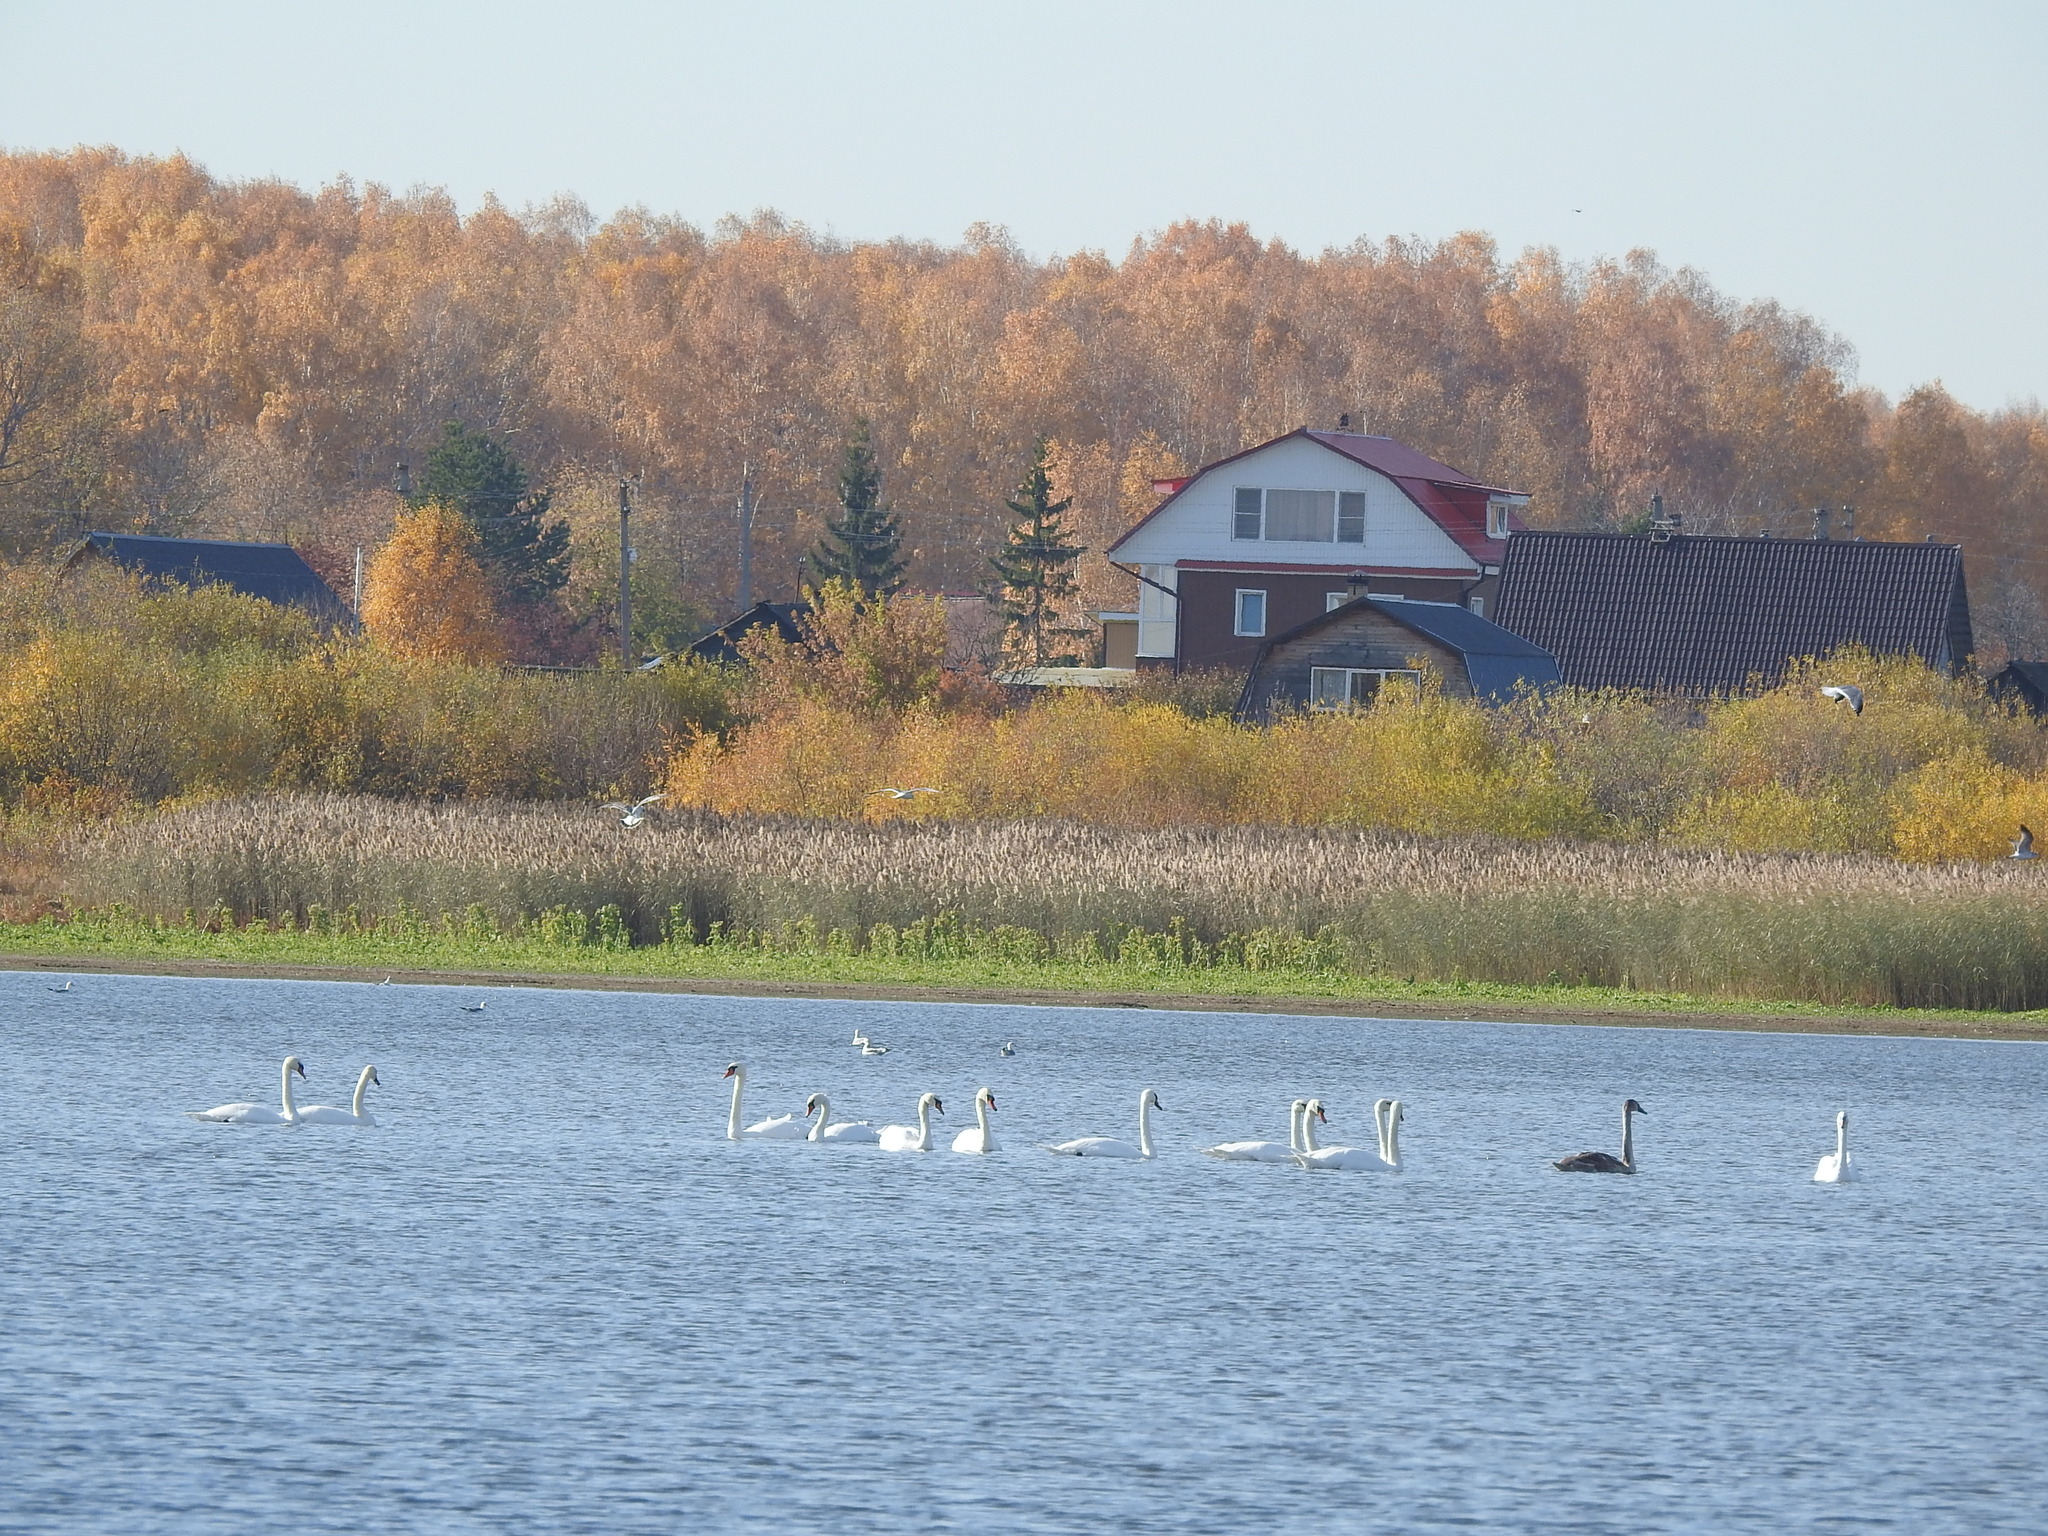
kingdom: Animalia
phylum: Chordata
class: Aves
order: Anseriformes
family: Anatidae
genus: Cygnus
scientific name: Cygnus olor
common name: Mute swan
